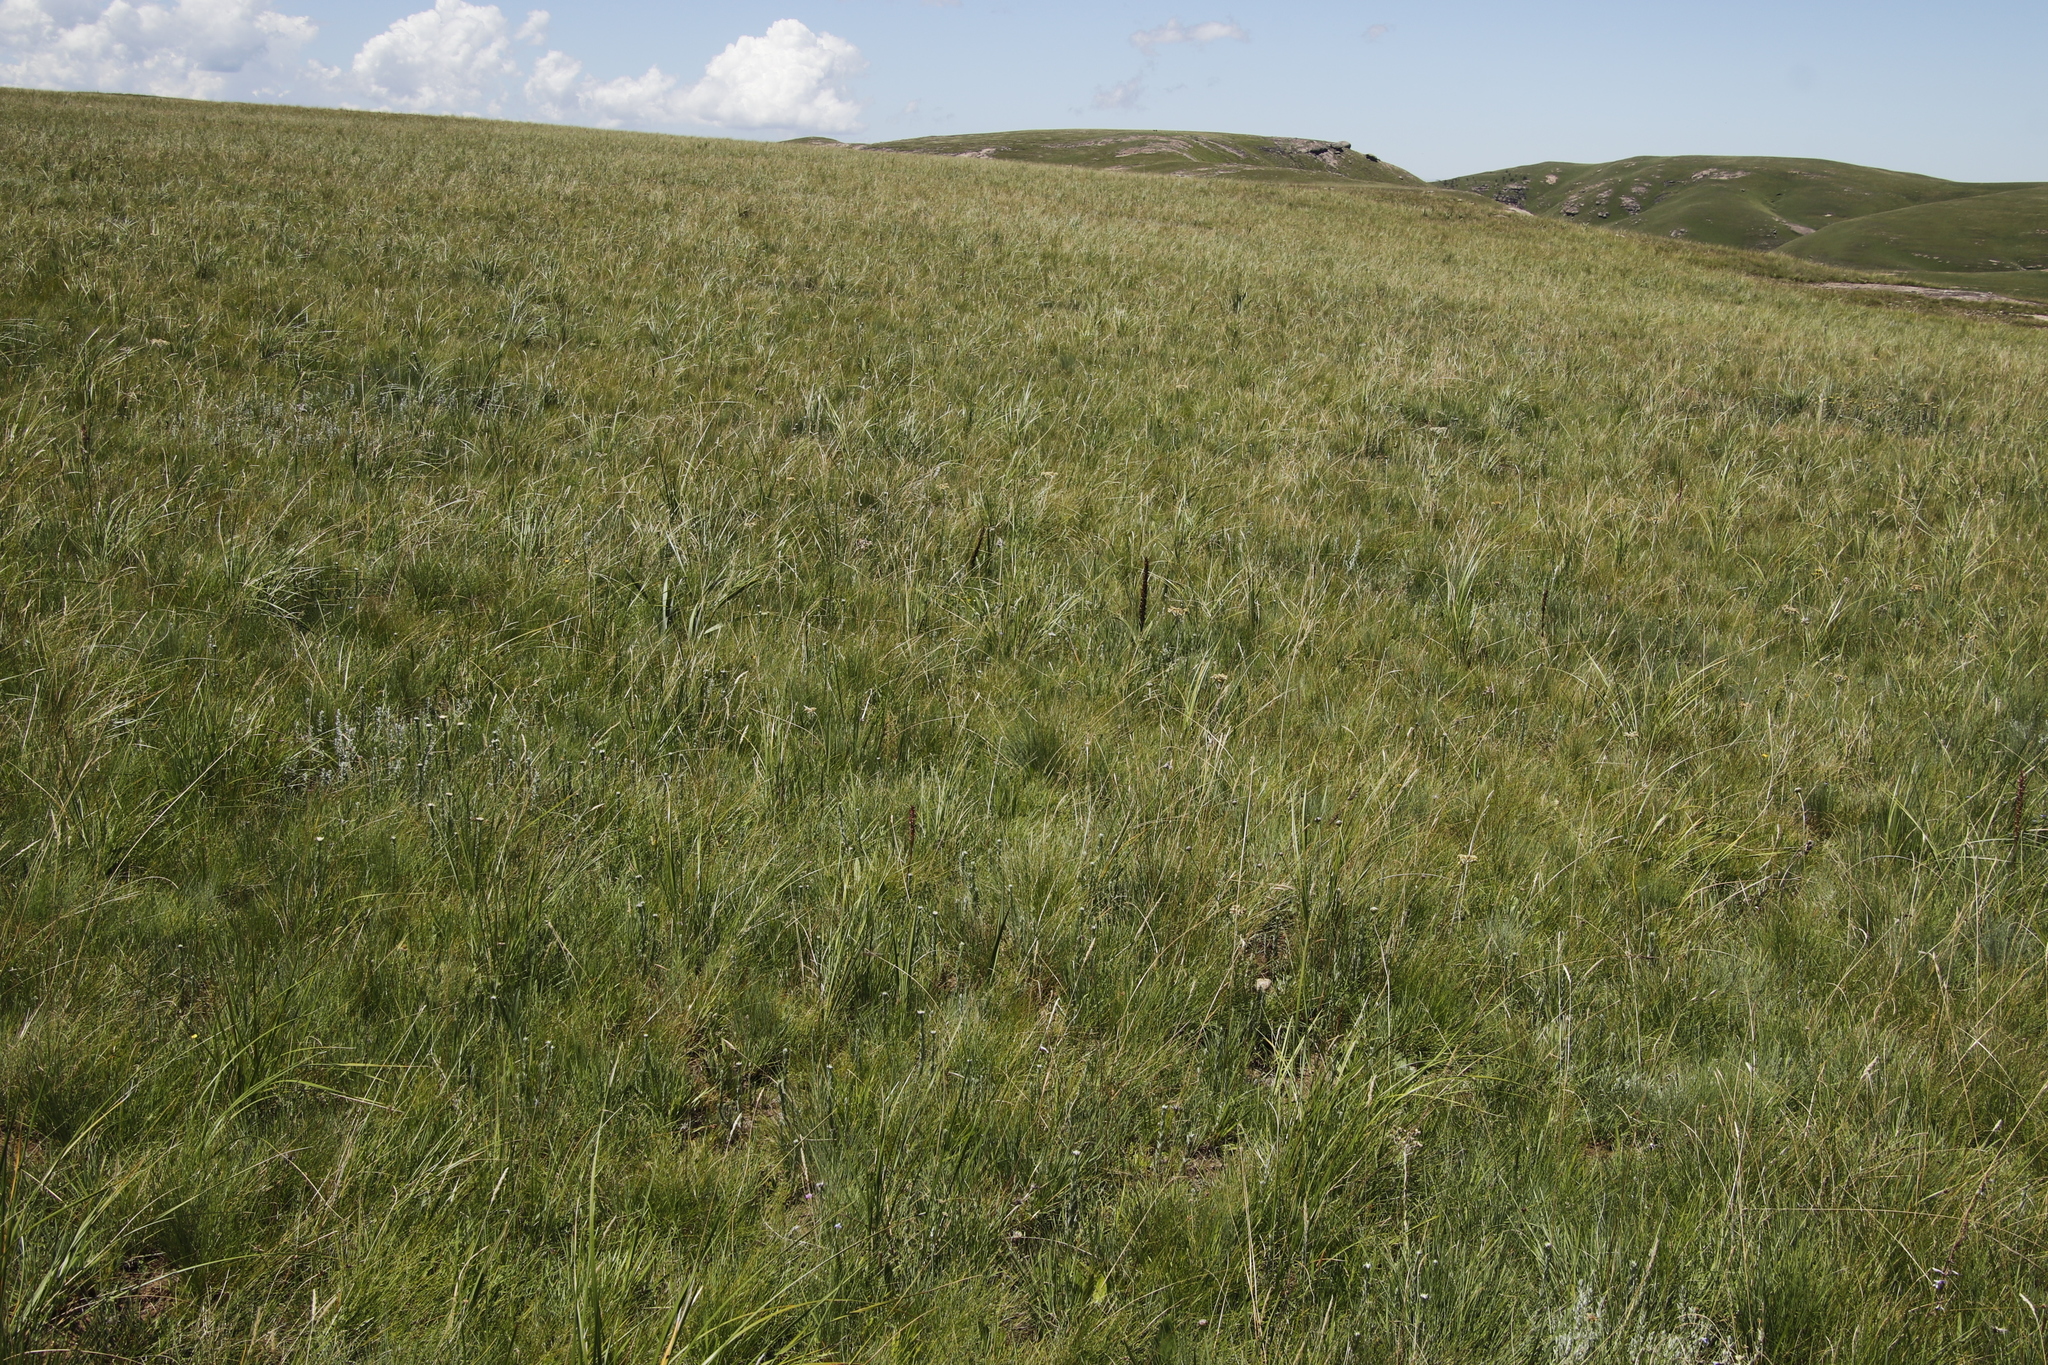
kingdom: Plantae
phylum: Tracheophyta
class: Liliopsida
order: Asparagales
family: Orchidaceae
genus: Disa
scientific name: Disa versicolor
